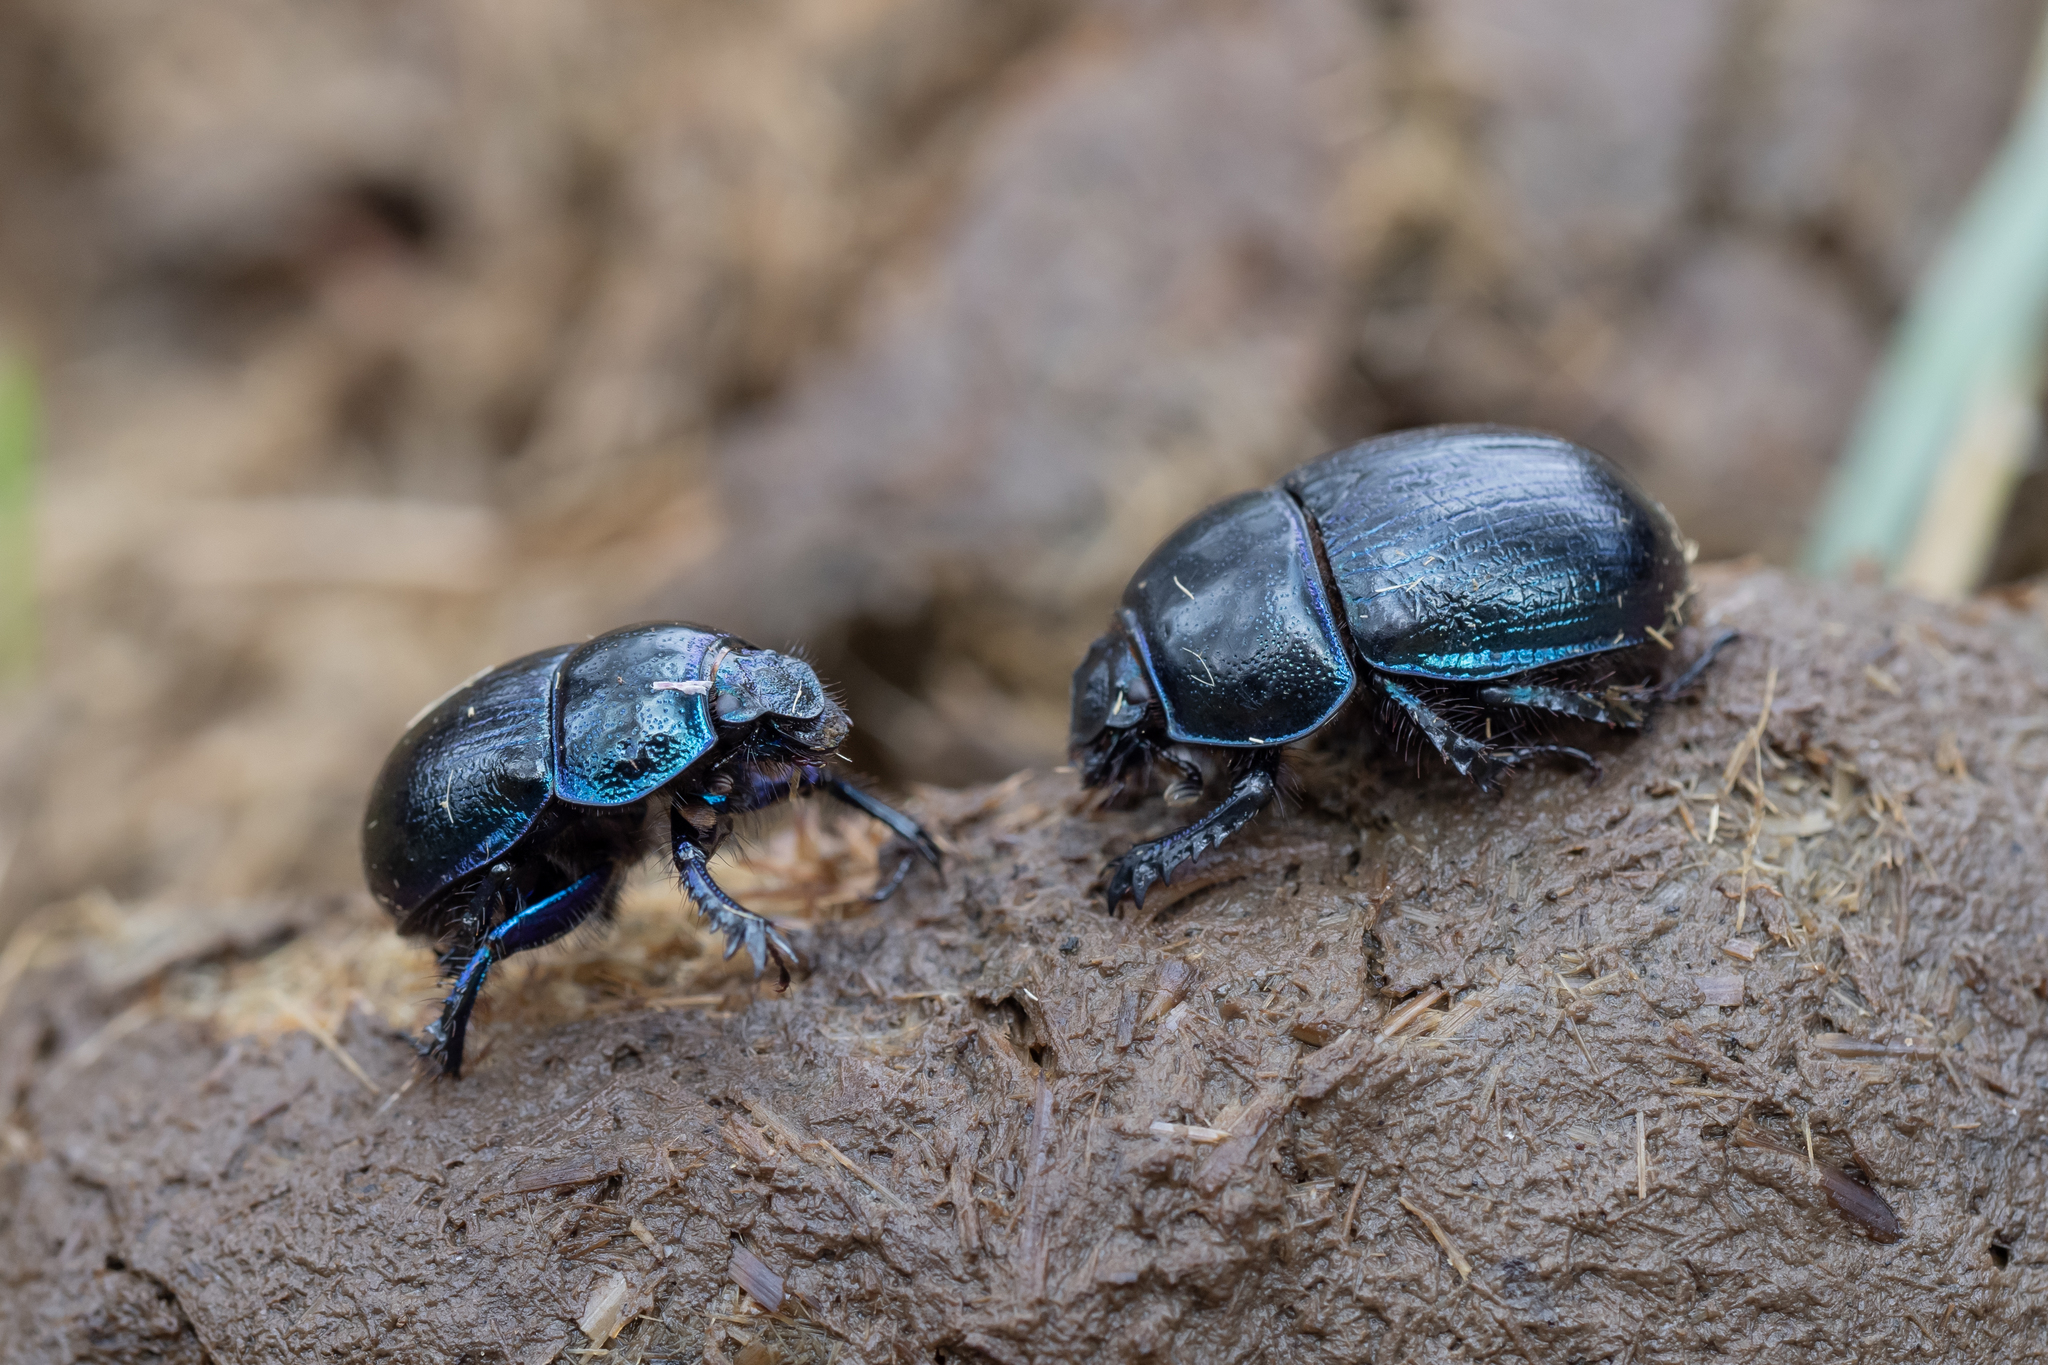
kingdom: Animalia
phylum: Arthropoda
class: Insecta
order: Coleoptera
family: Geotrupidae
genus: Anoplotrupes
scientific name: Anoplotrupes stercorosus
